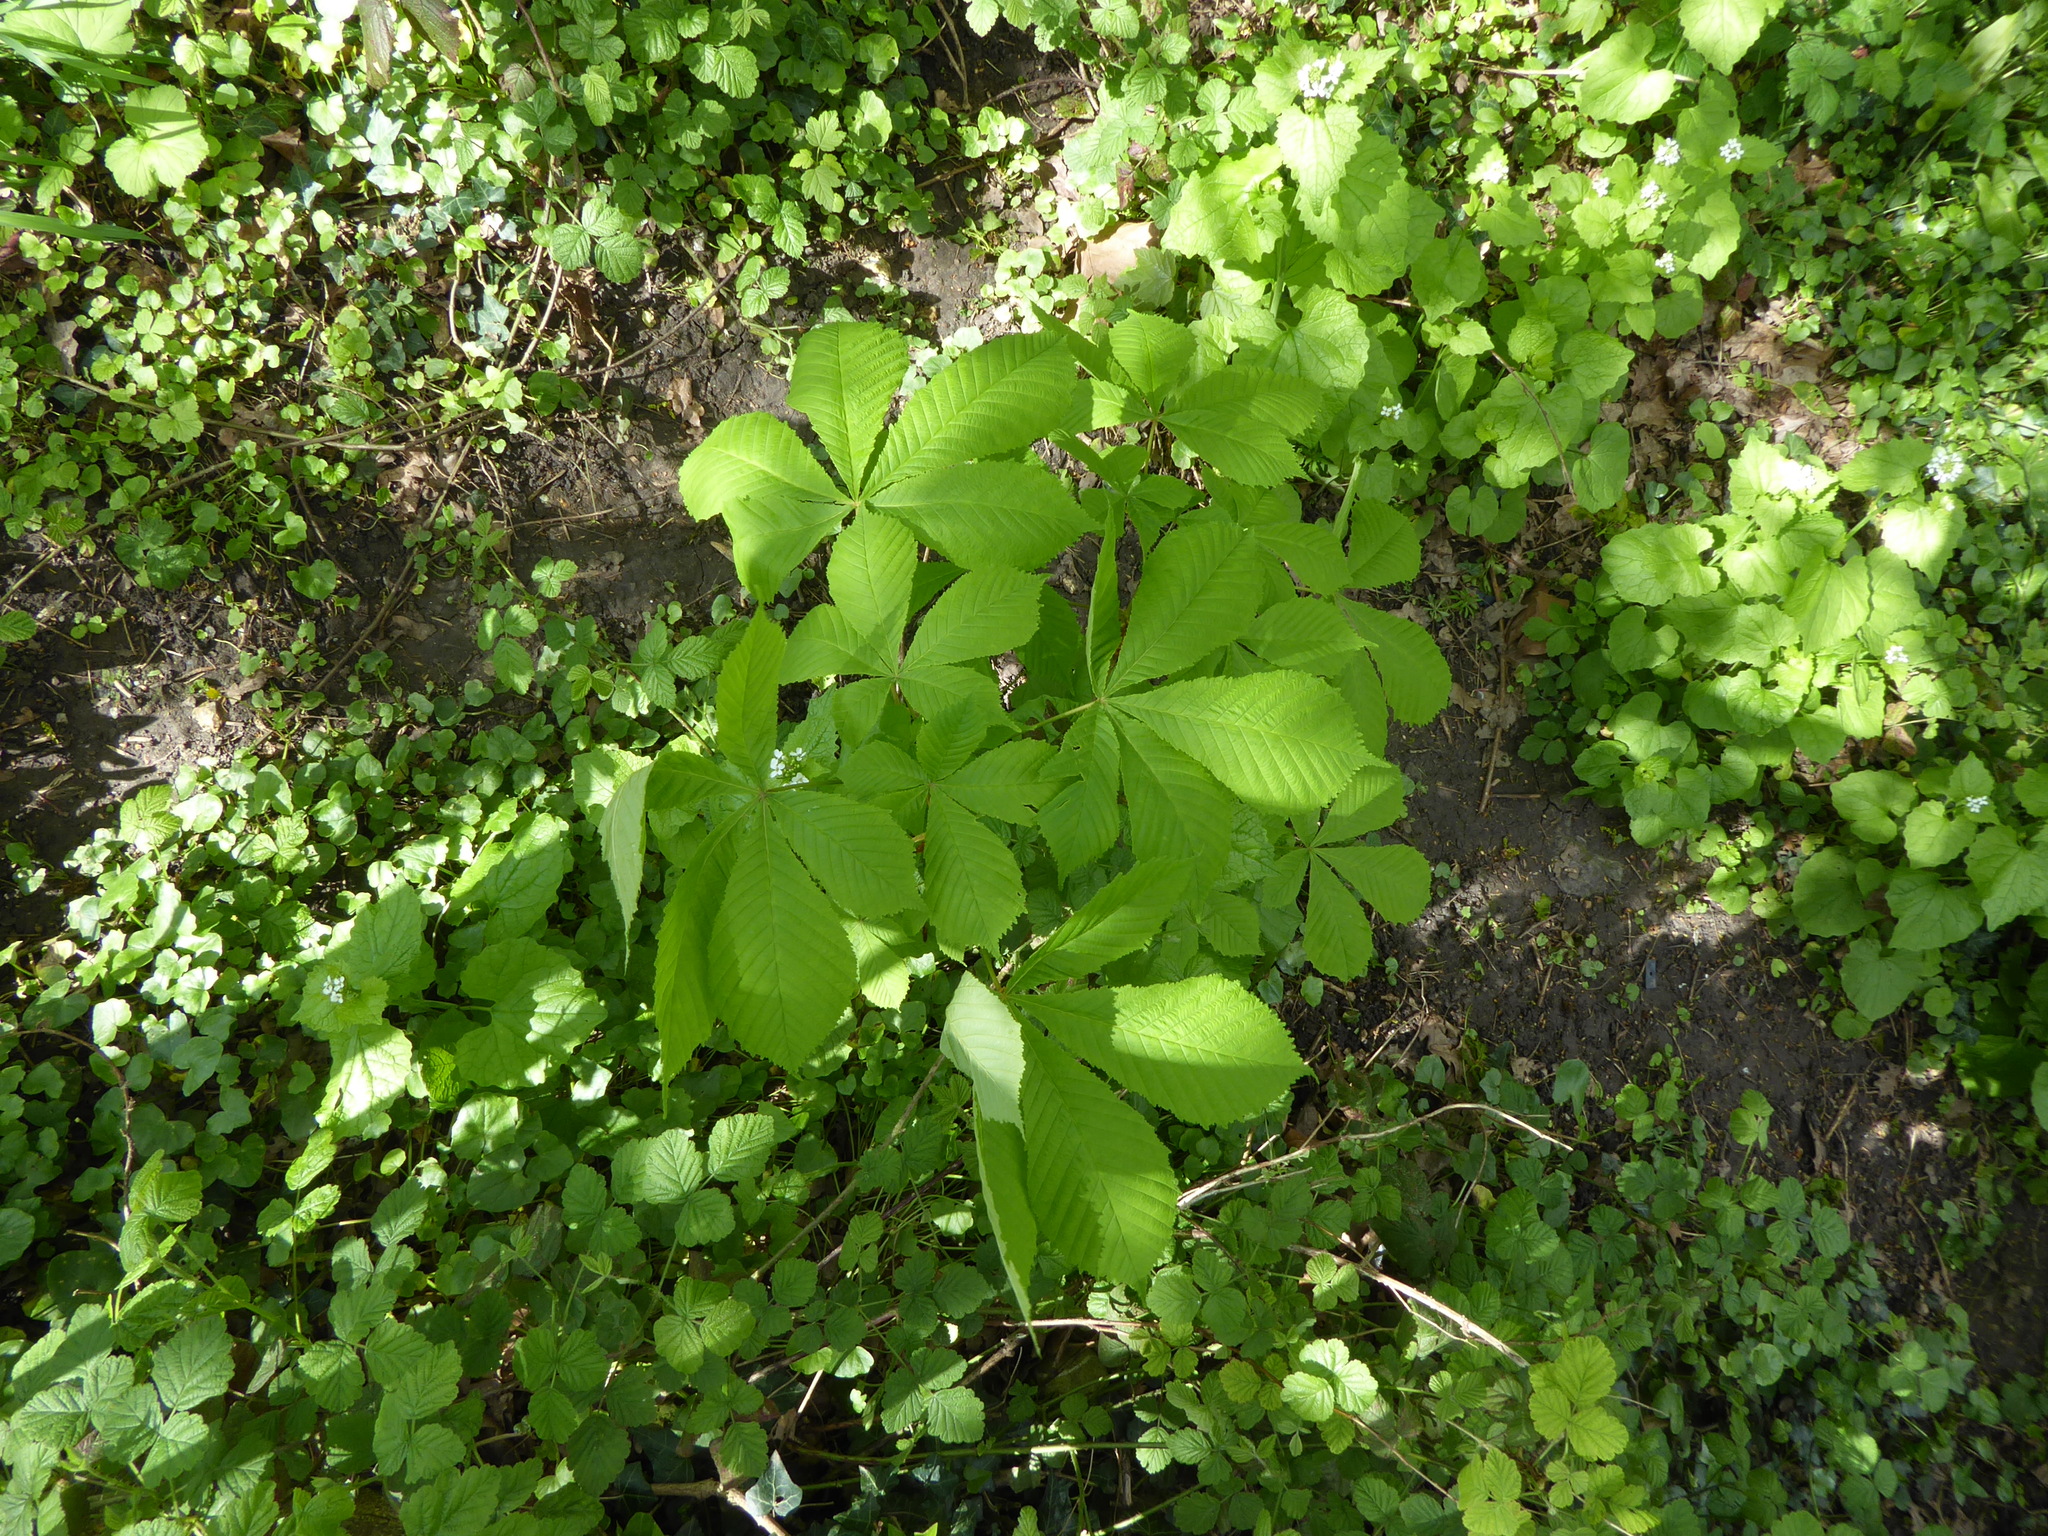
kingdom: Plantae
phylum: Tracheophyta
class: Magnoliopsida
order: Sapindales
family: Sapindaceae
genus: Aesculus
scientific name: Aesculus hippocastanum
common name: Horse-chestnut
